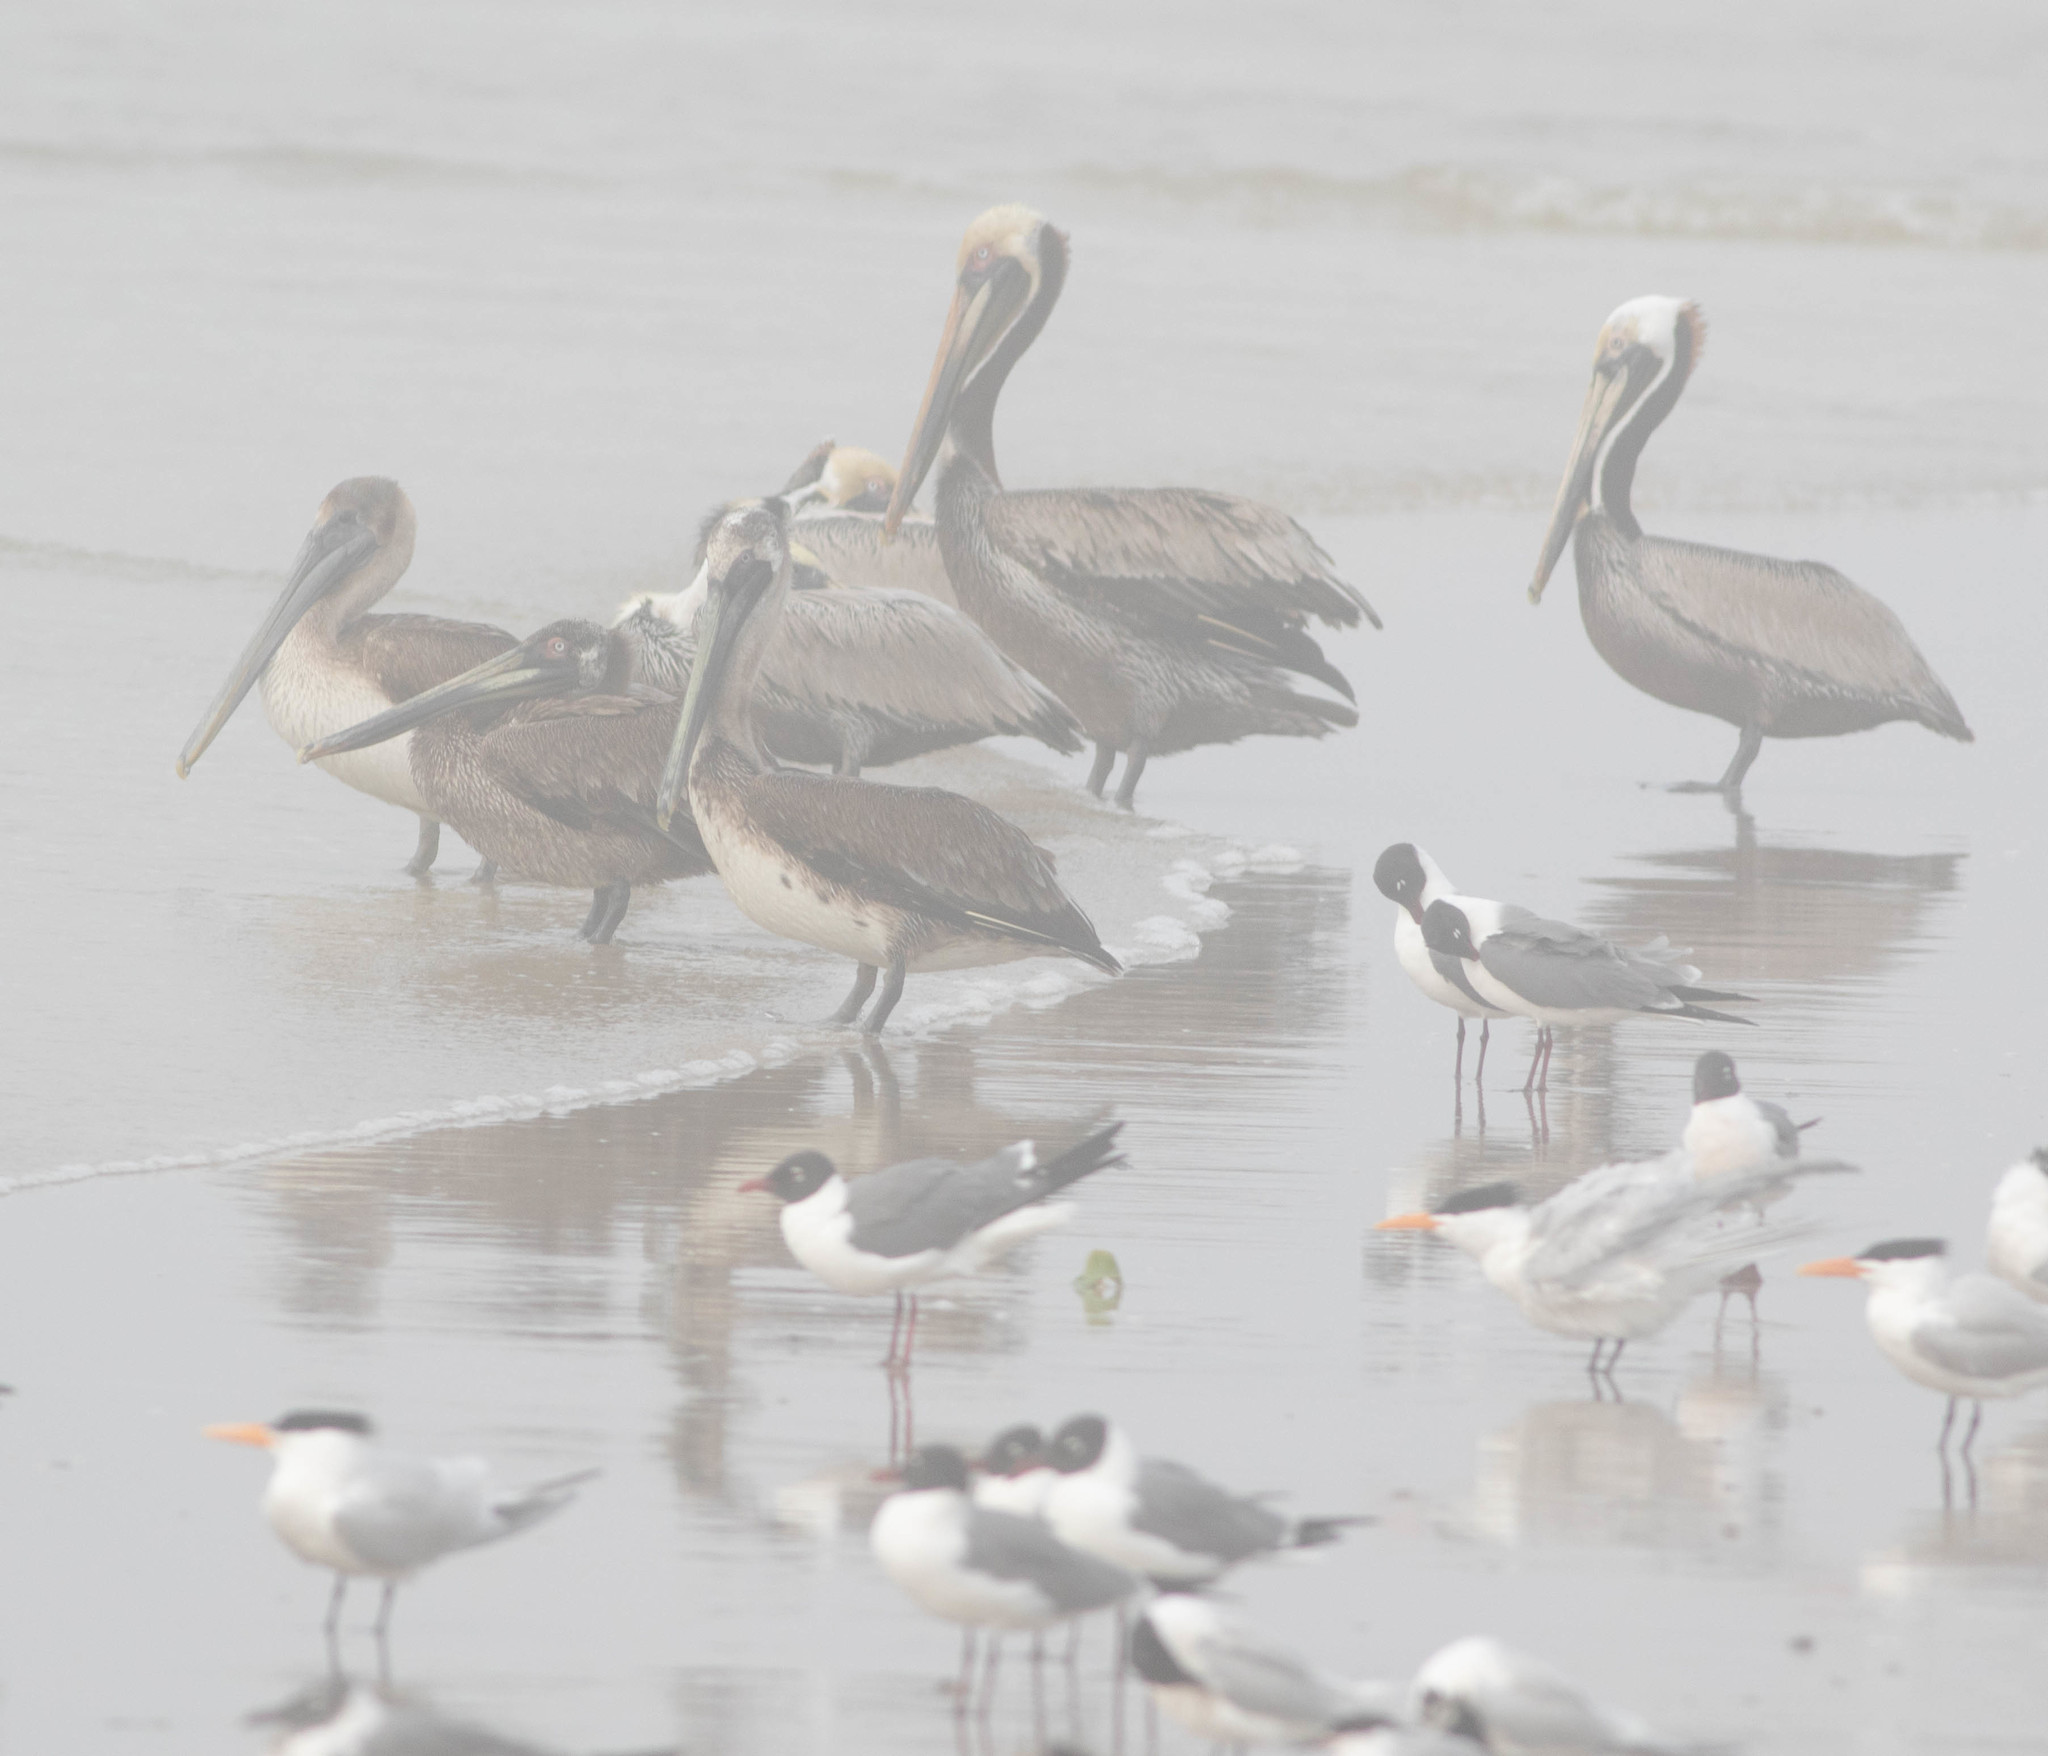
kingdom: Animalia
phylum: Chordata
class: Aves
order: Pelecaniformes
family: Pelecanidae
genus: Pelecanus
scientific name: Pelecanus occidentalis
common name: Brown pelican
